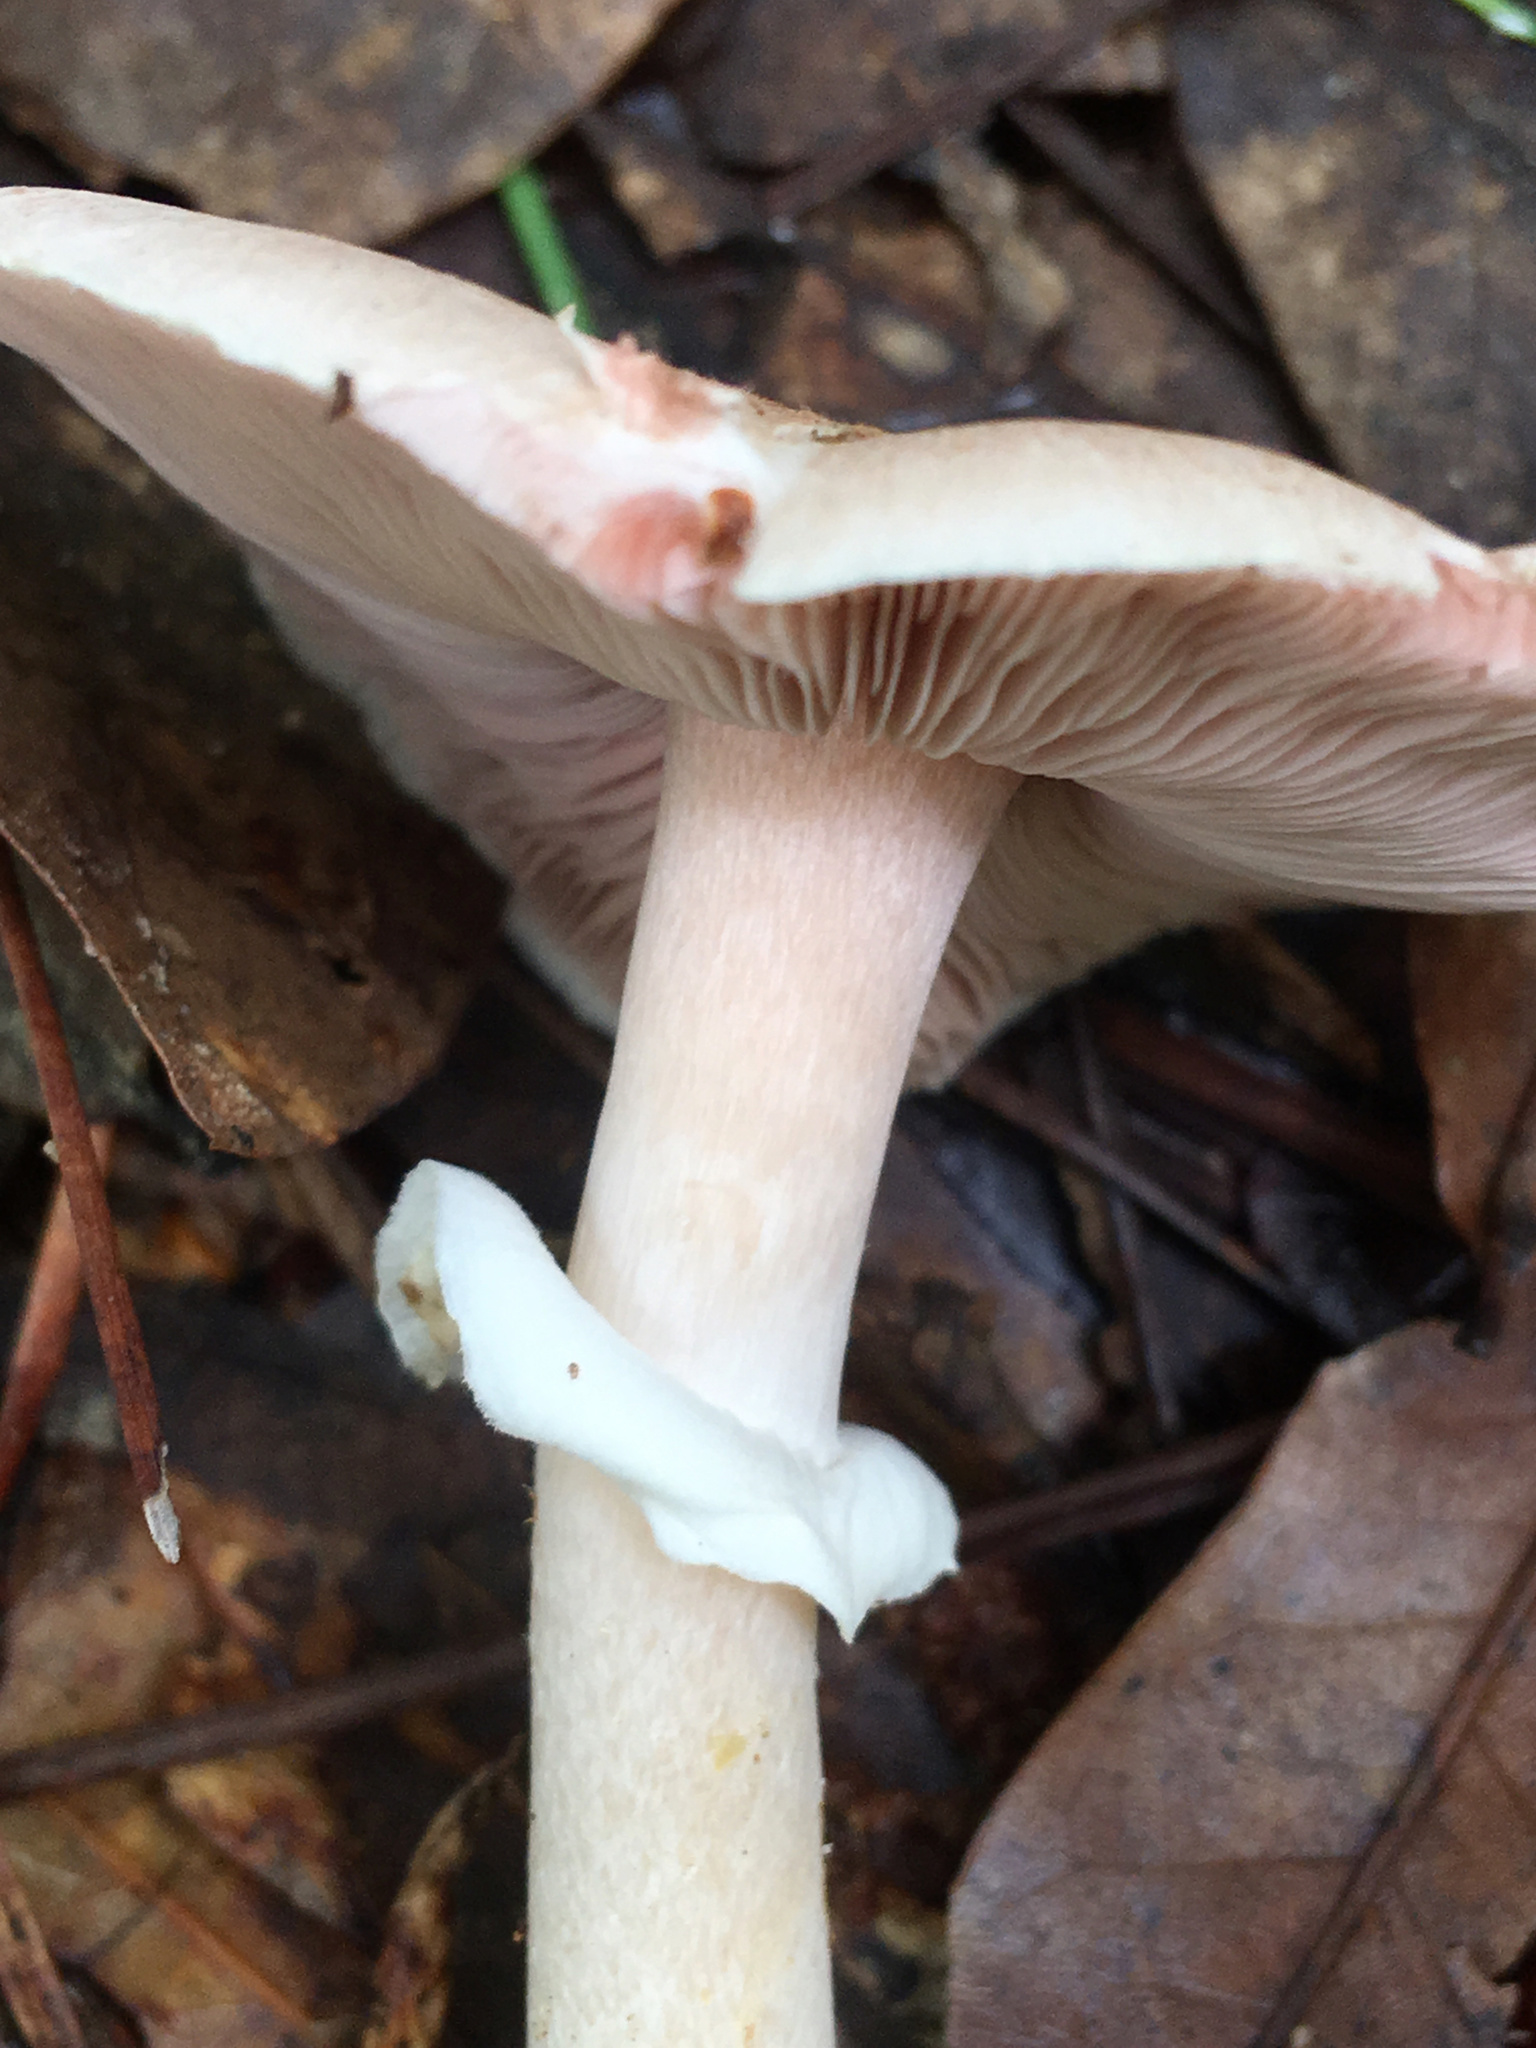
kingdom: Fungi
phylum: Basidiomycota
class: Agaricomycetes
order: Agaricales
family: Agaricaceae
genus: Agaricus
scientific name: Agaricus vinosobrunneofumidus
